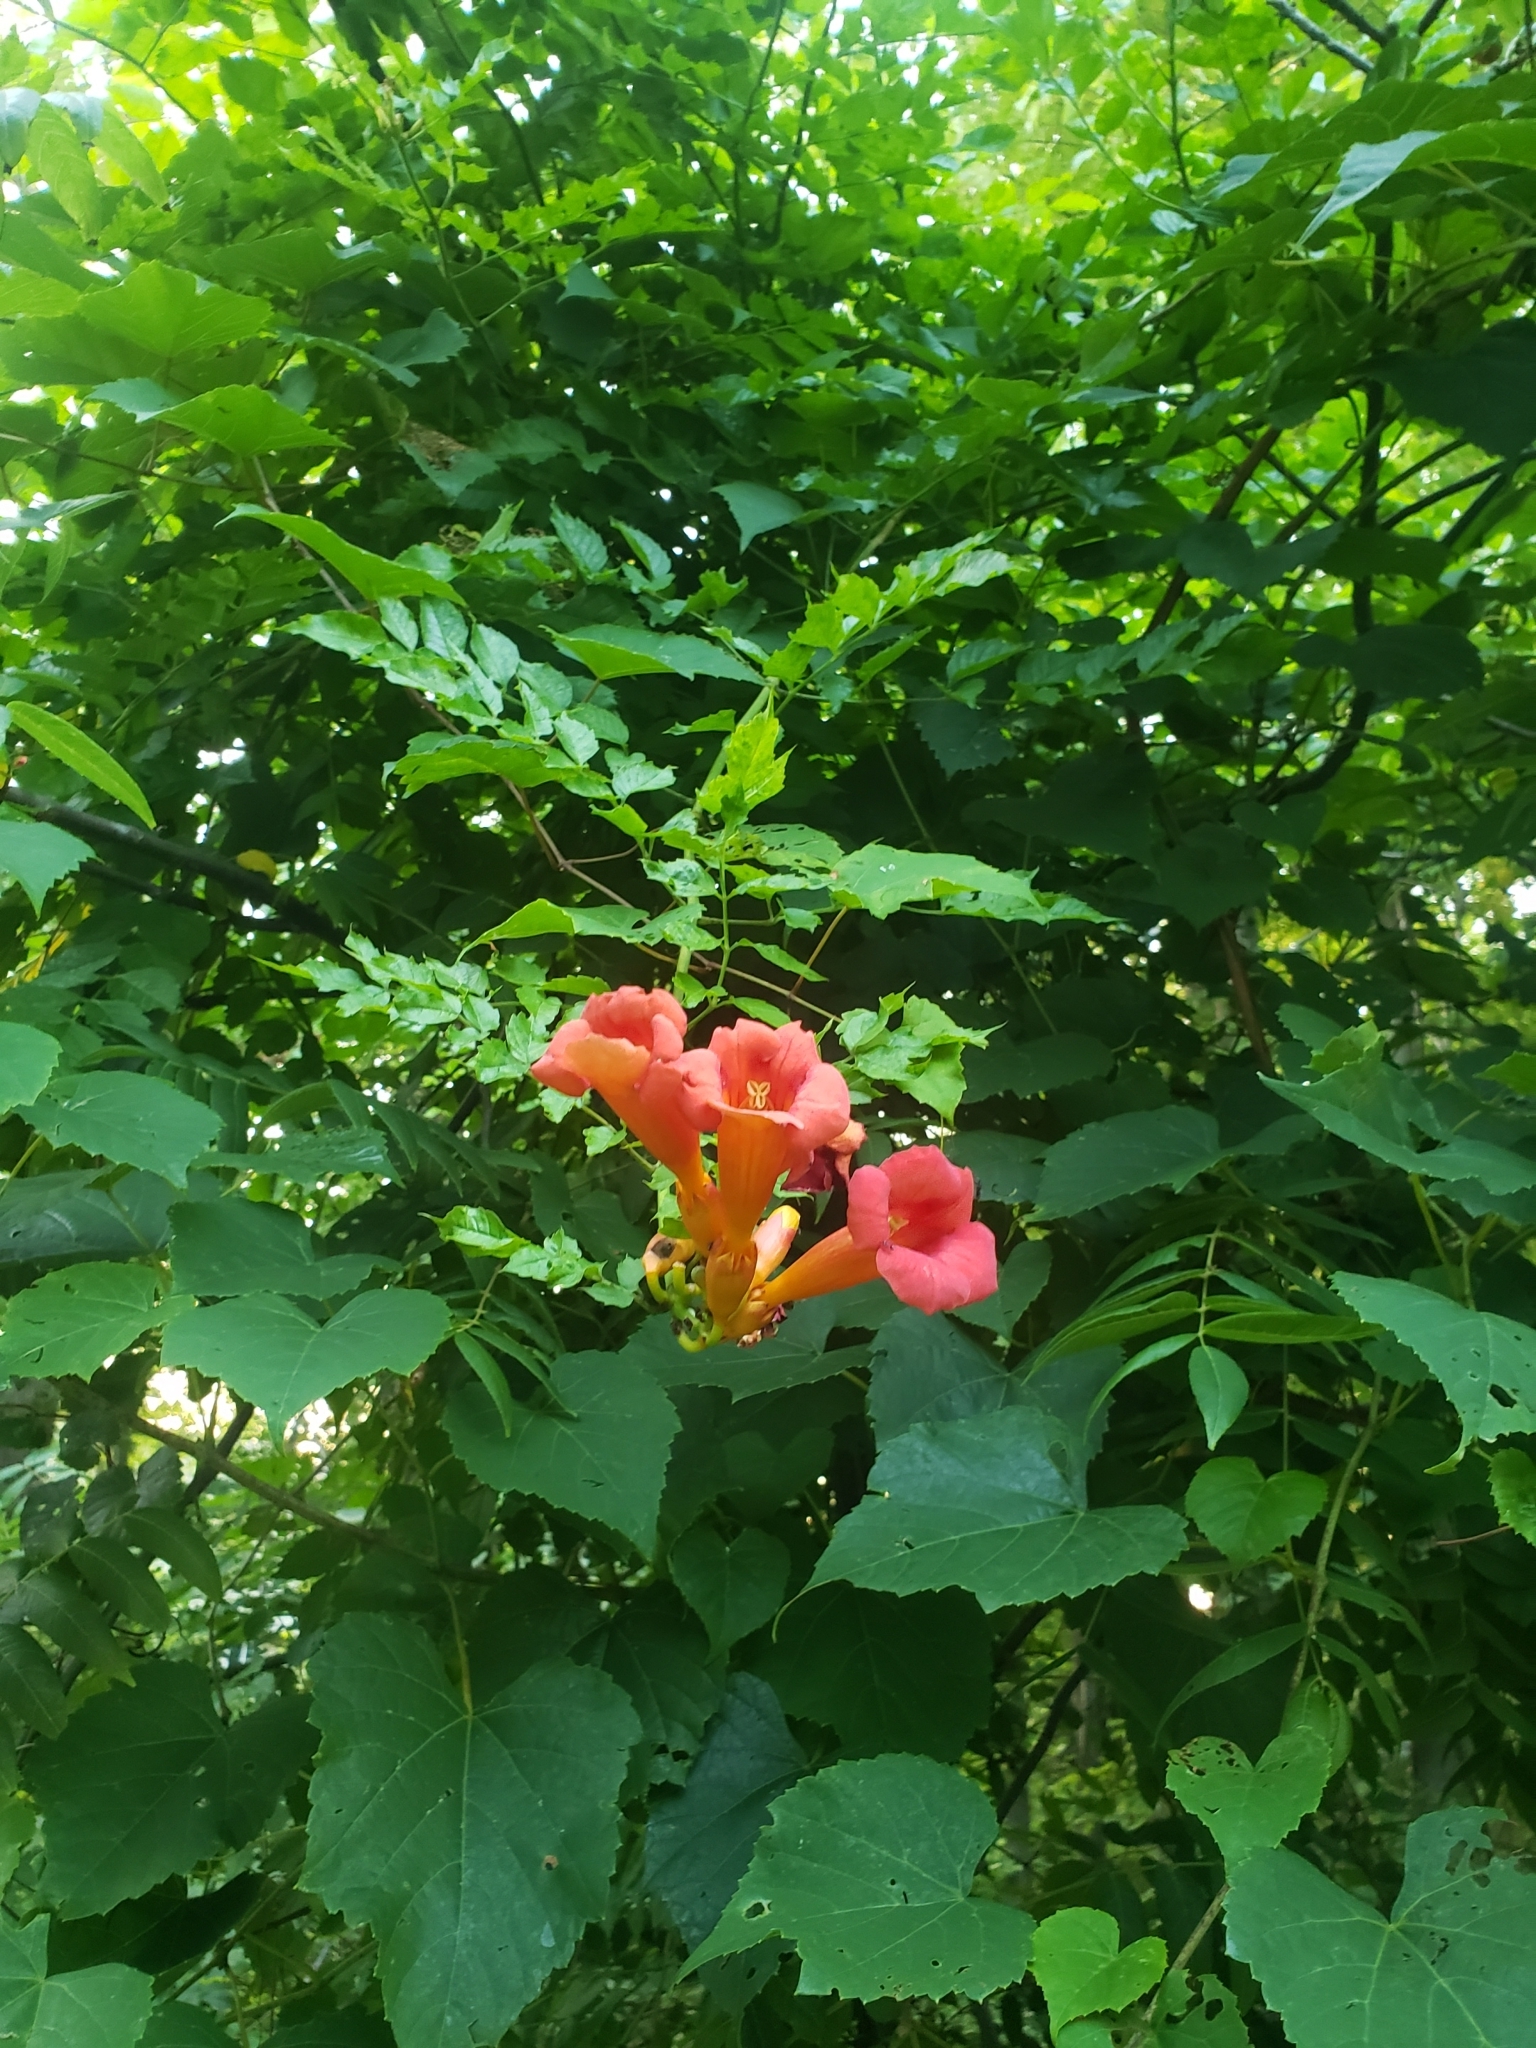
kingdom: Plantae
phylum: Tracheophyta
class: Magnoliopsida
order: Lamiales
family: Bignoniaceae
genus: Campsis
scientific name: Campsis radicans
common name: Trumpet-creeper
